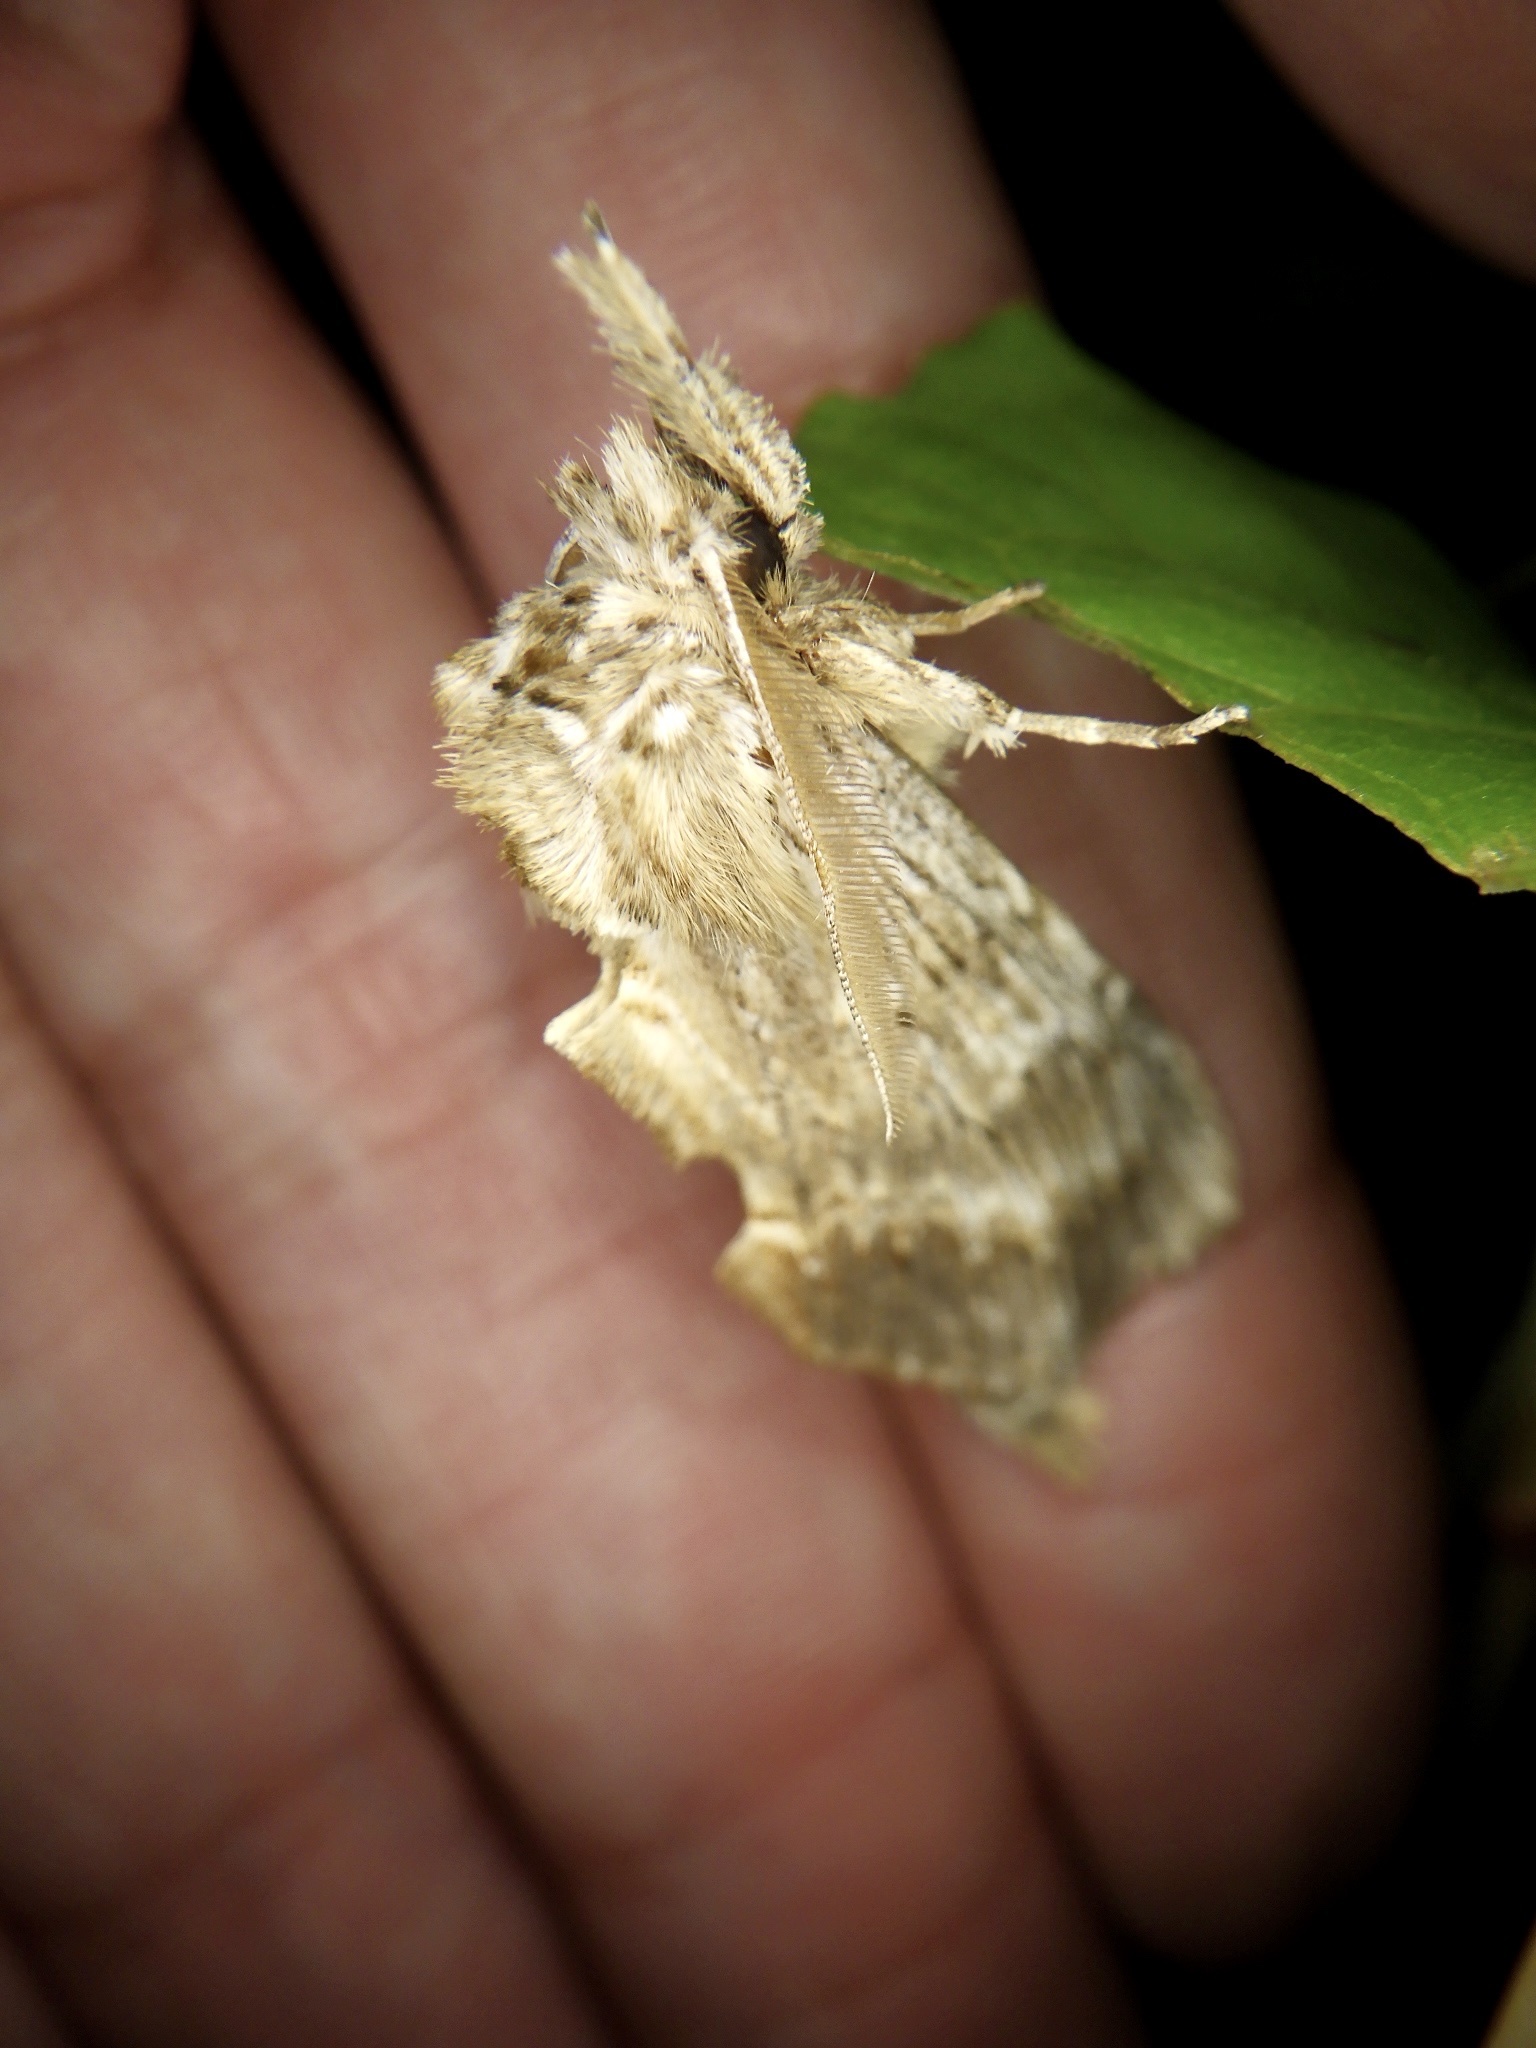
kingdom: Animalia
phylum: Arthropoda
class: Insecta
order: Lepidoptera
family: Notodontidae
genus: Pterostoma
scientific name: Pterostoma gigantina
